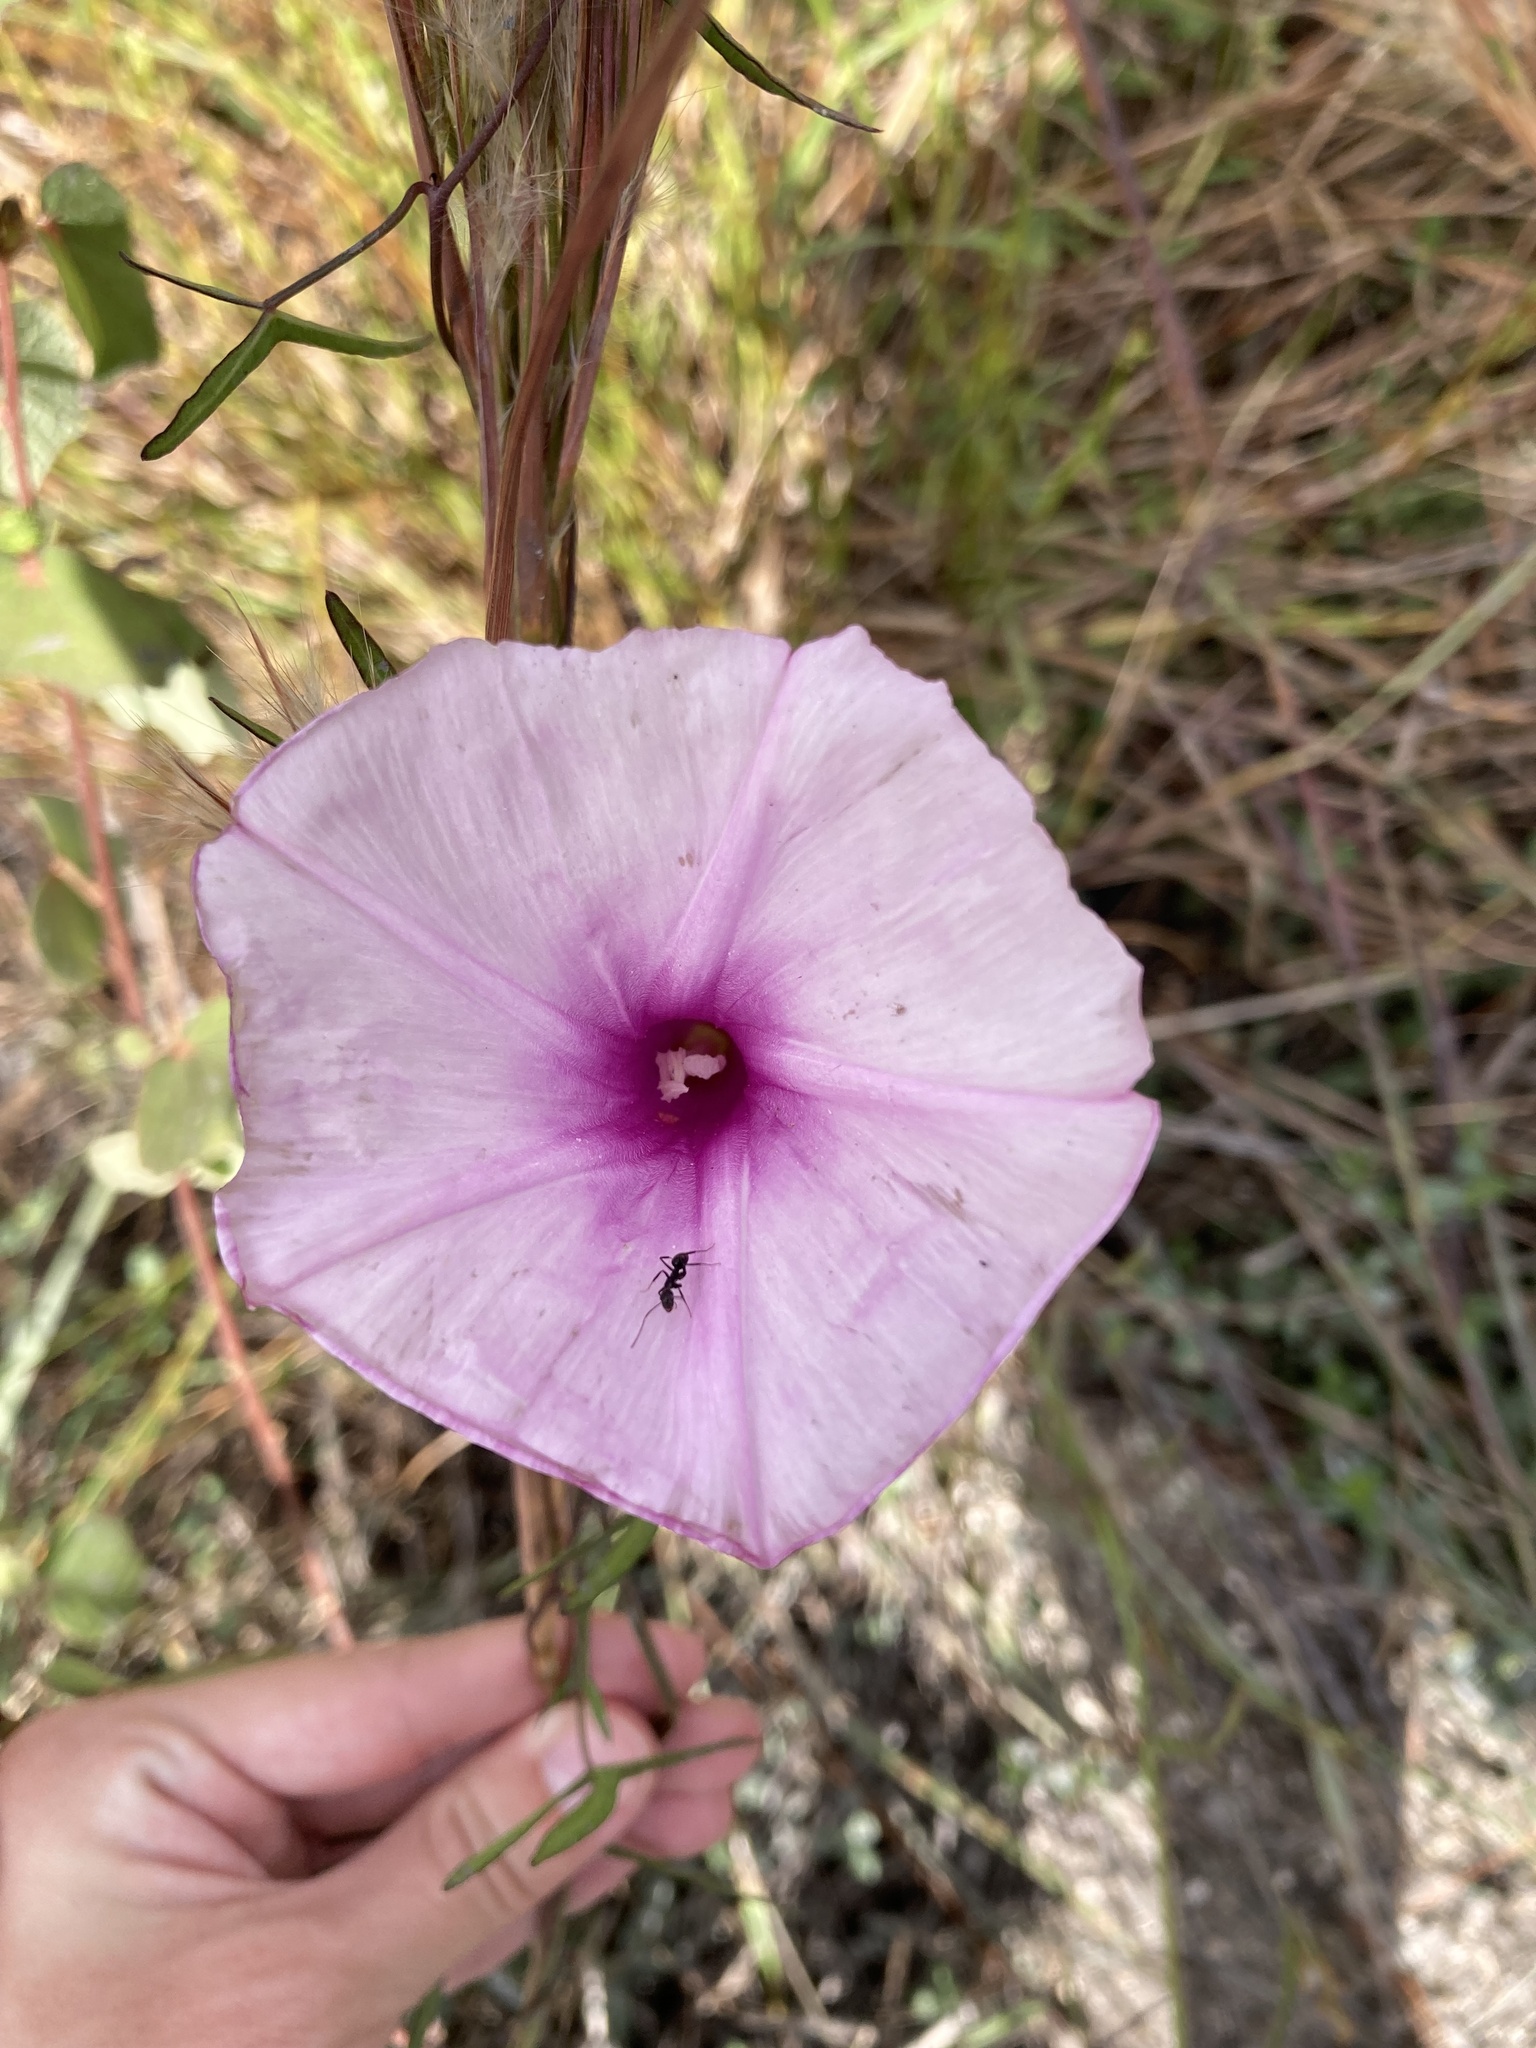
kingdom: Plantae
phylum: Tracheophyta
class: Magnoliopsida
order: Solanales
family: Convolvulaceae
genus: Ipomoea
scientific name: Ipomoea sagittata
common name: Saltmarsh morning glory
